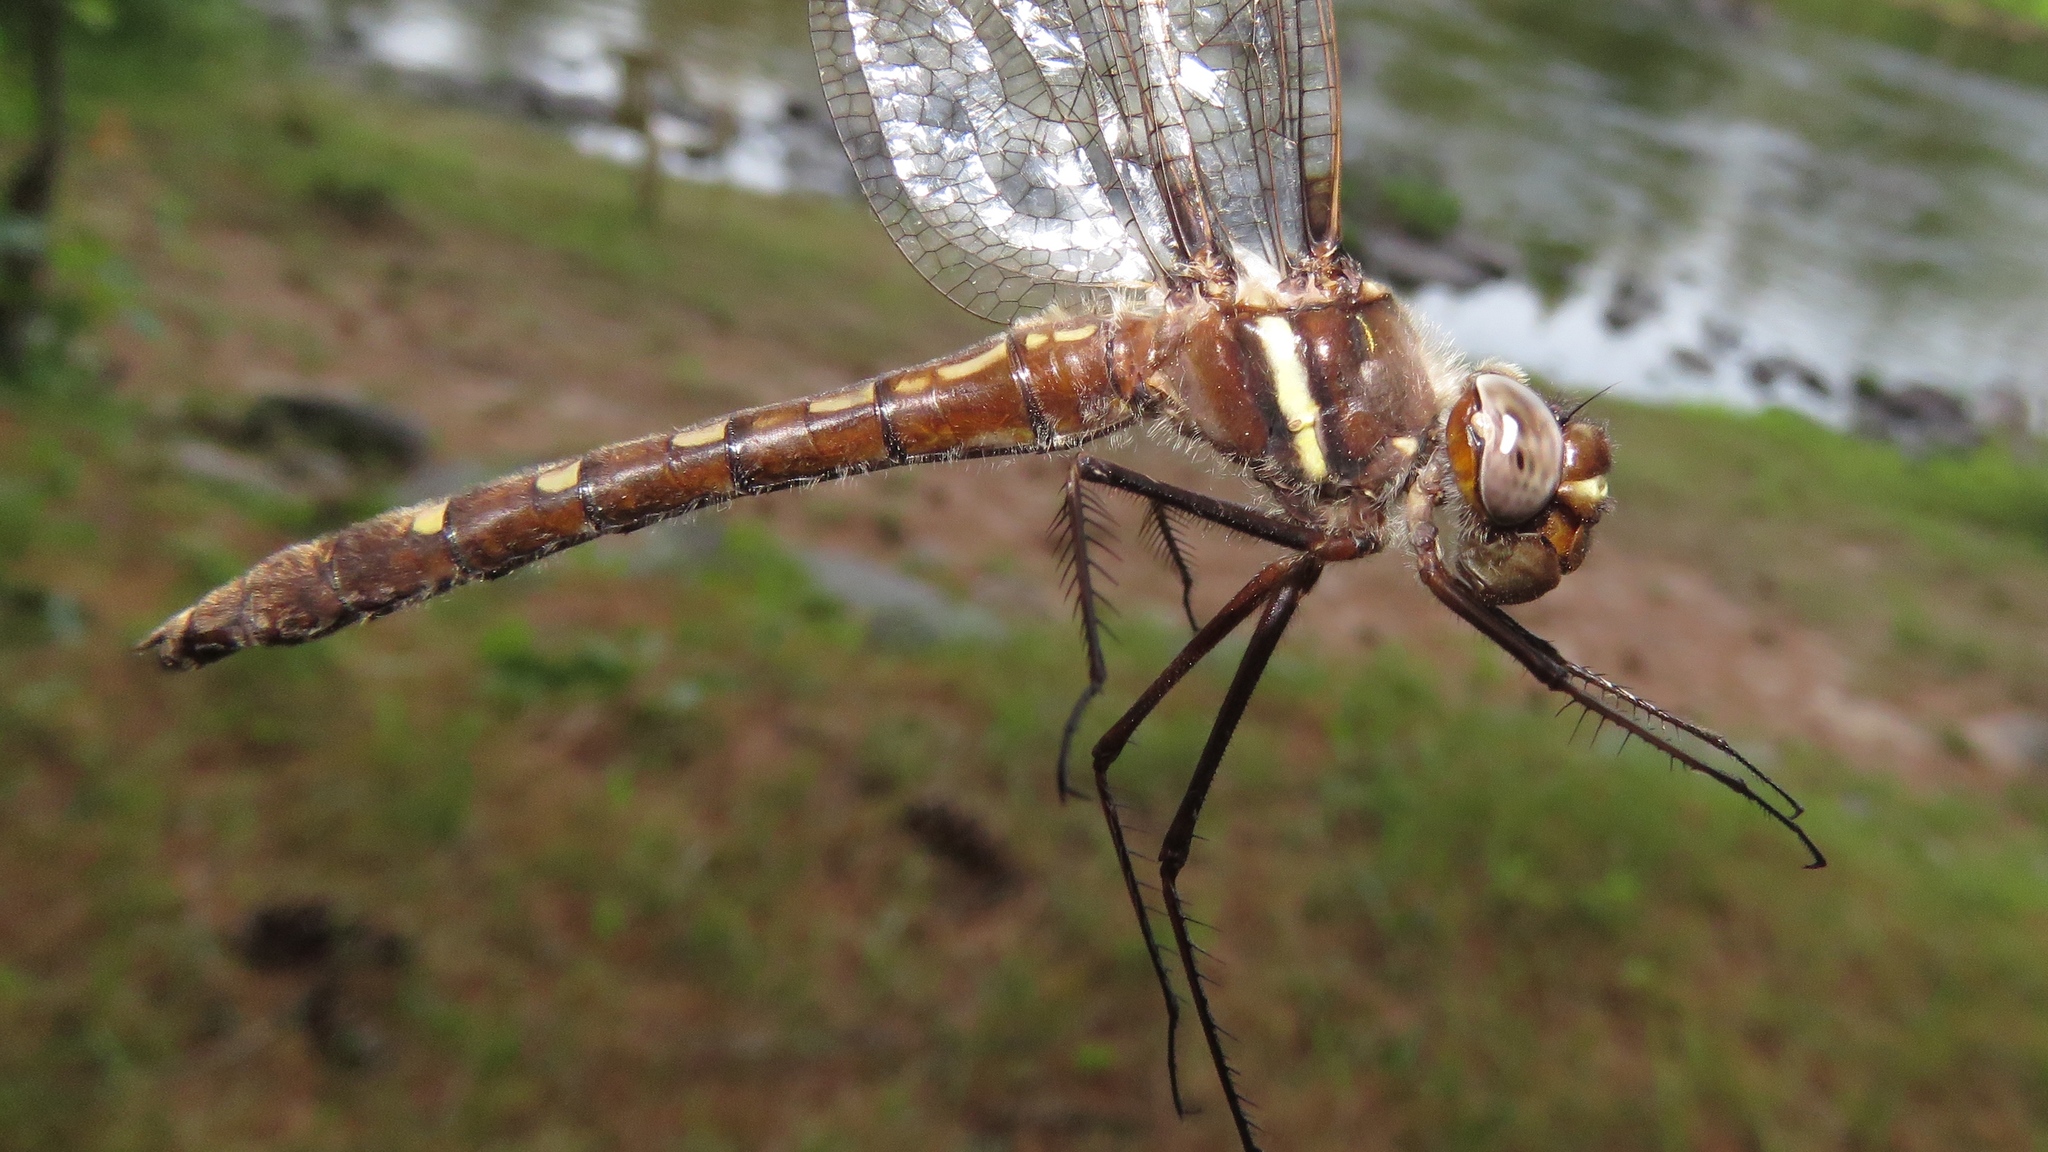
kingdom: Animalia
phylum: Arthropoda
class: Insecta
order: Odonata
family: Macromiidae
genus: Didymops
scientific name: Didymops transversa
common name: Stream cruiser
